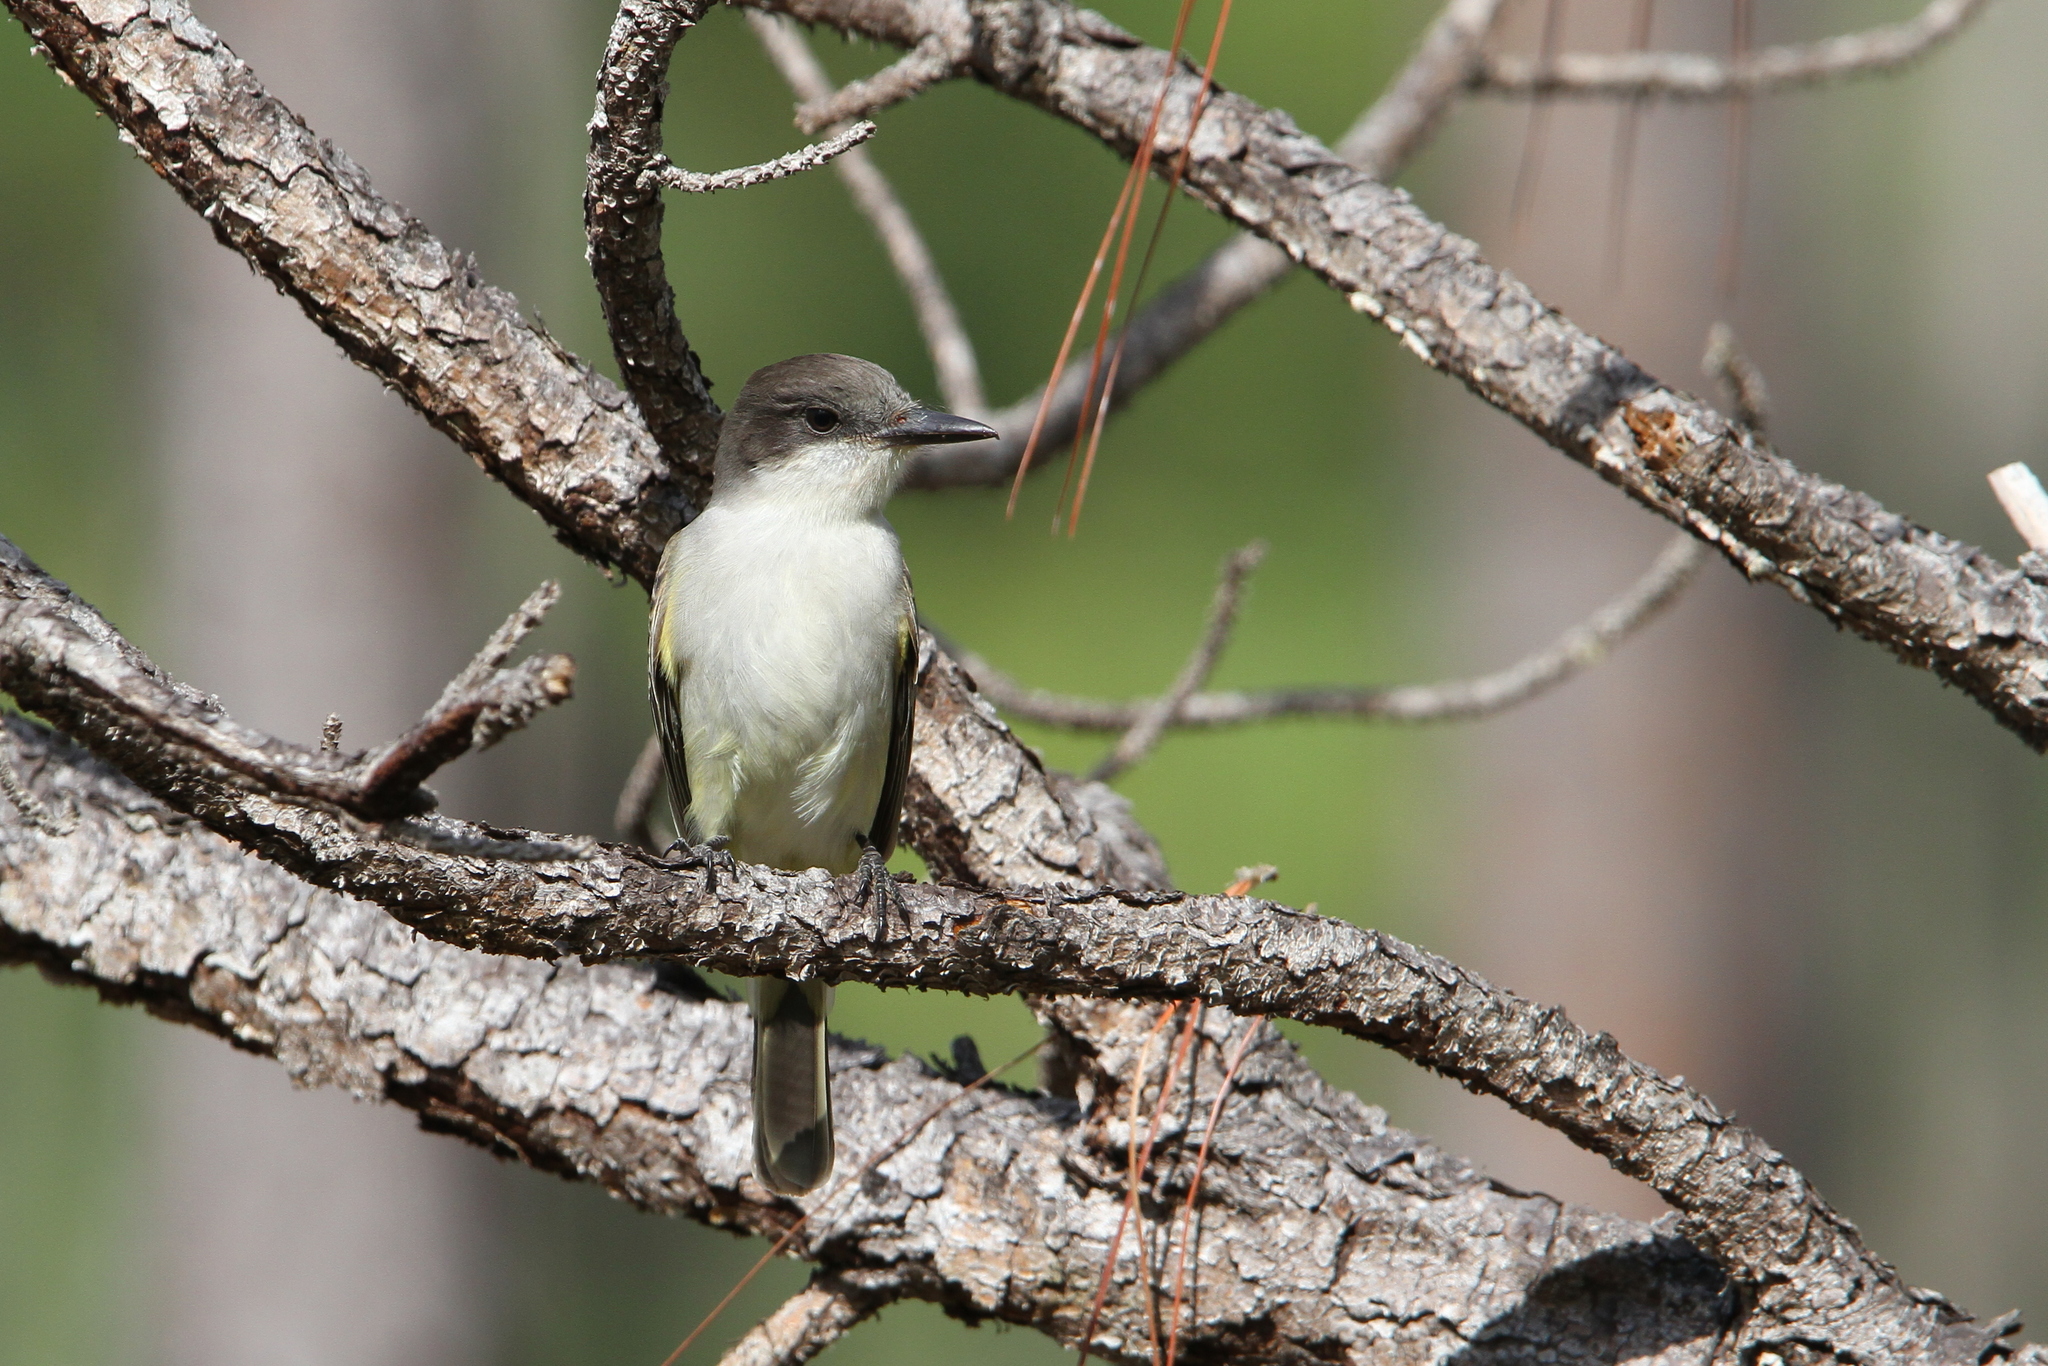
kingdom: Animalia
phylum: Chordata
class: Aves
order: Passeriformes
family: Tyrannidae
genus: Tyrannus
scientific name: Tyrannus caudifasciatus
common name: Loggerhead kingbird
